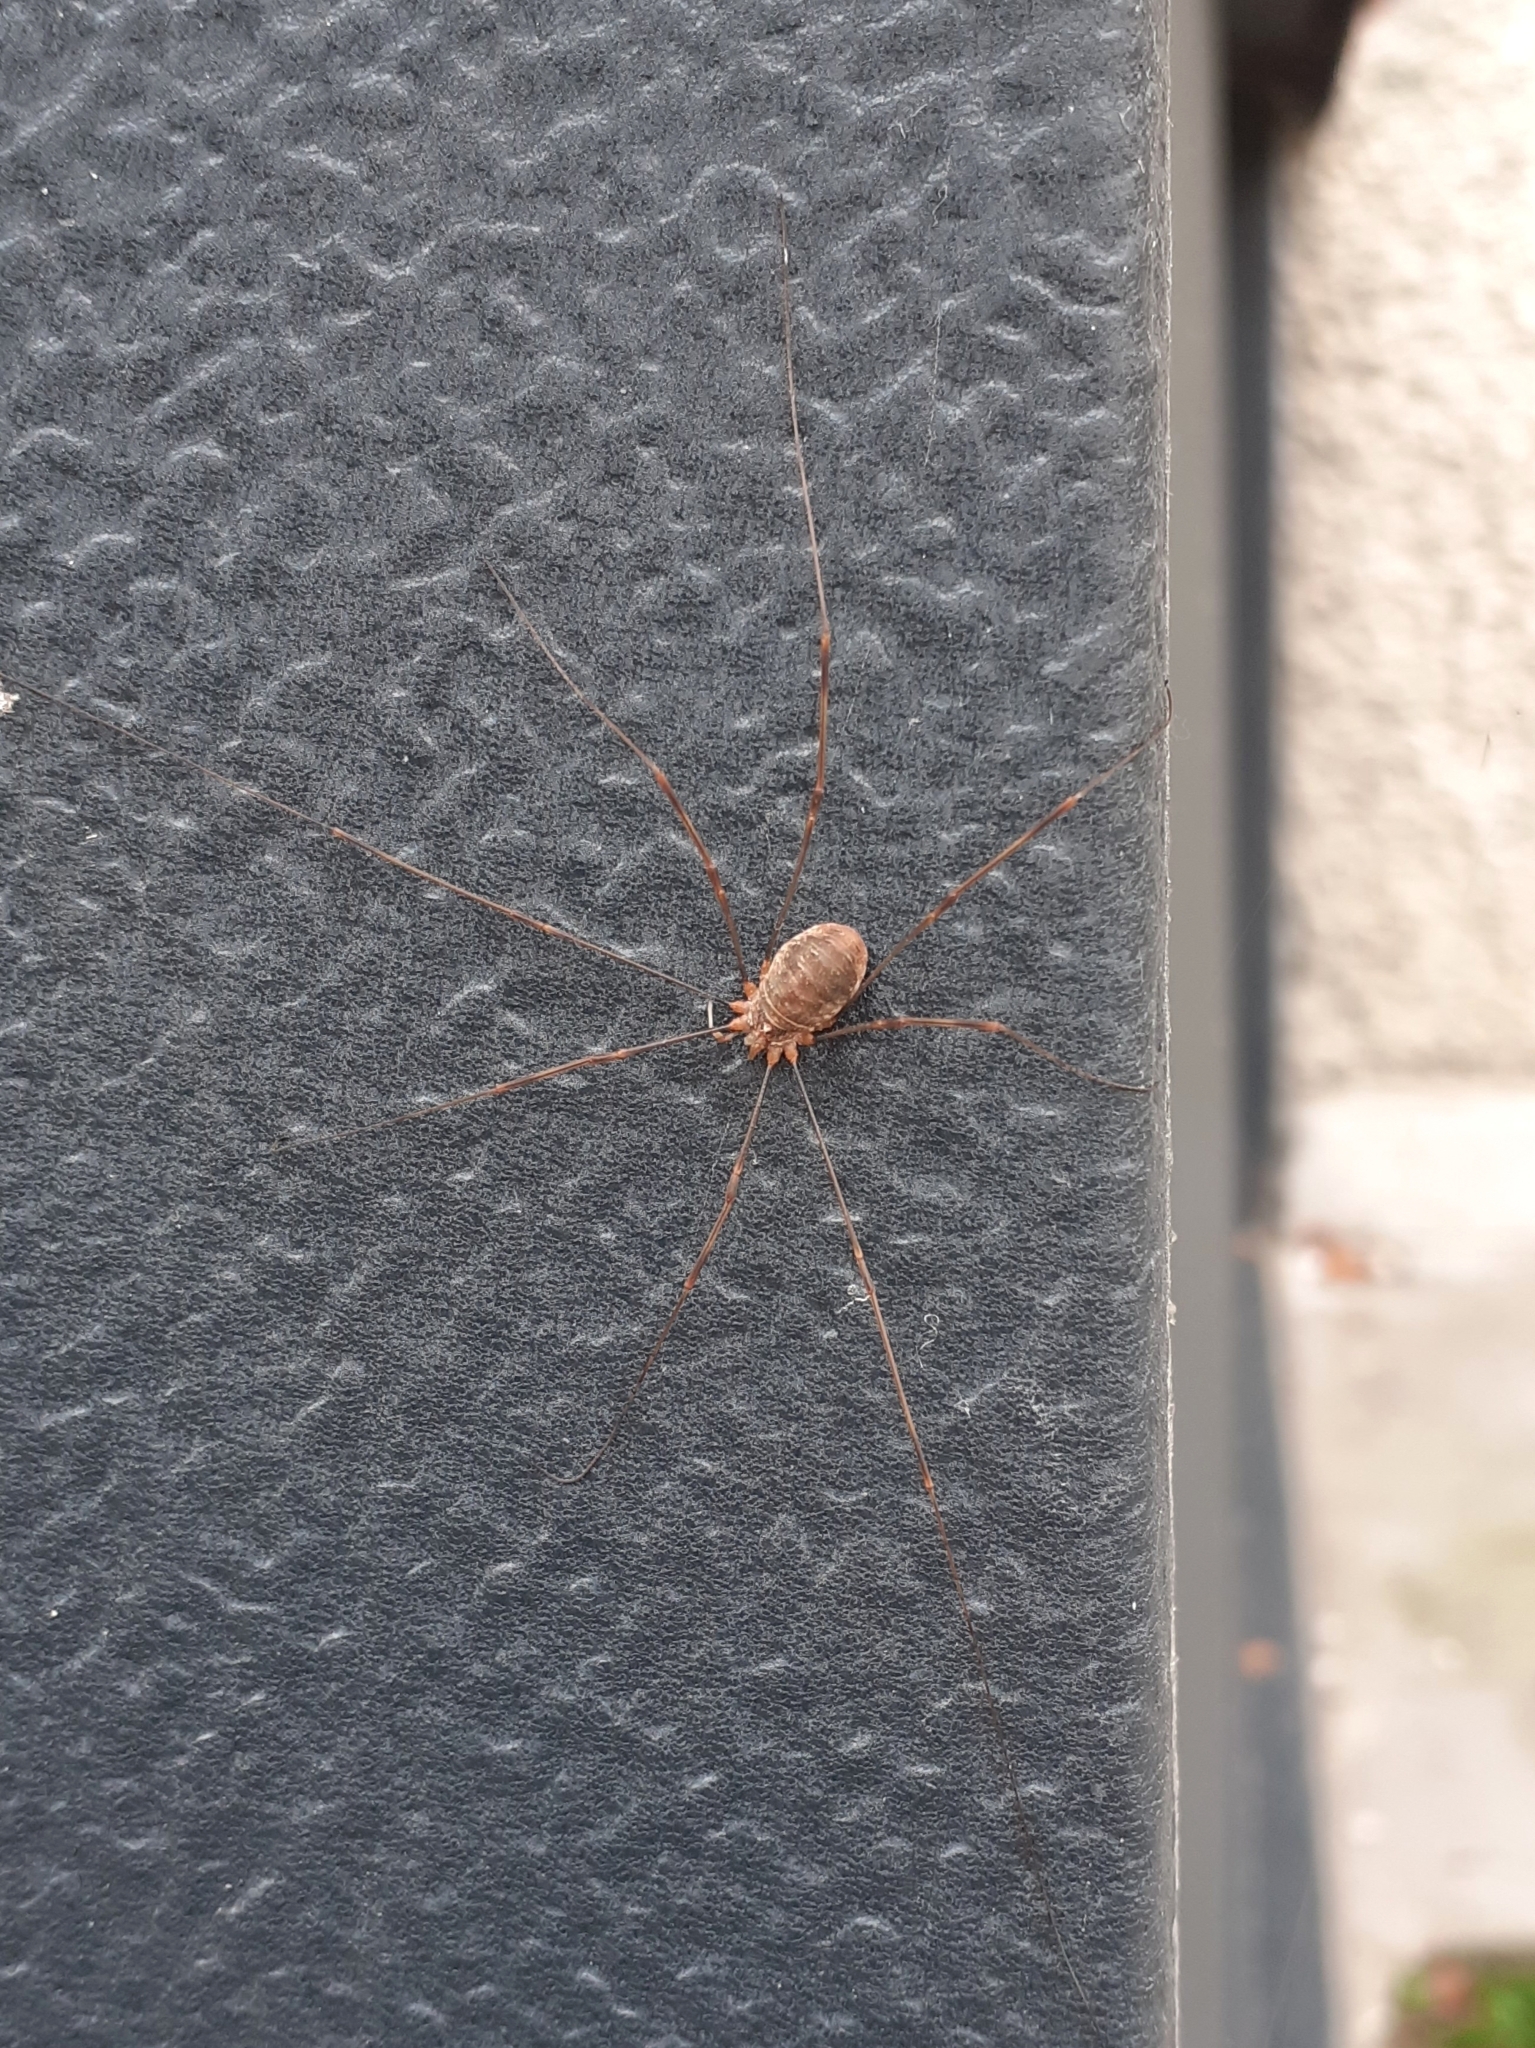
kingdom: Animalia
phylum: Arthropoda
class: Arachnida
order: Opiliones
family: Phalangiidae
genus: Opilio
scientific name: Opilio canestrinii
